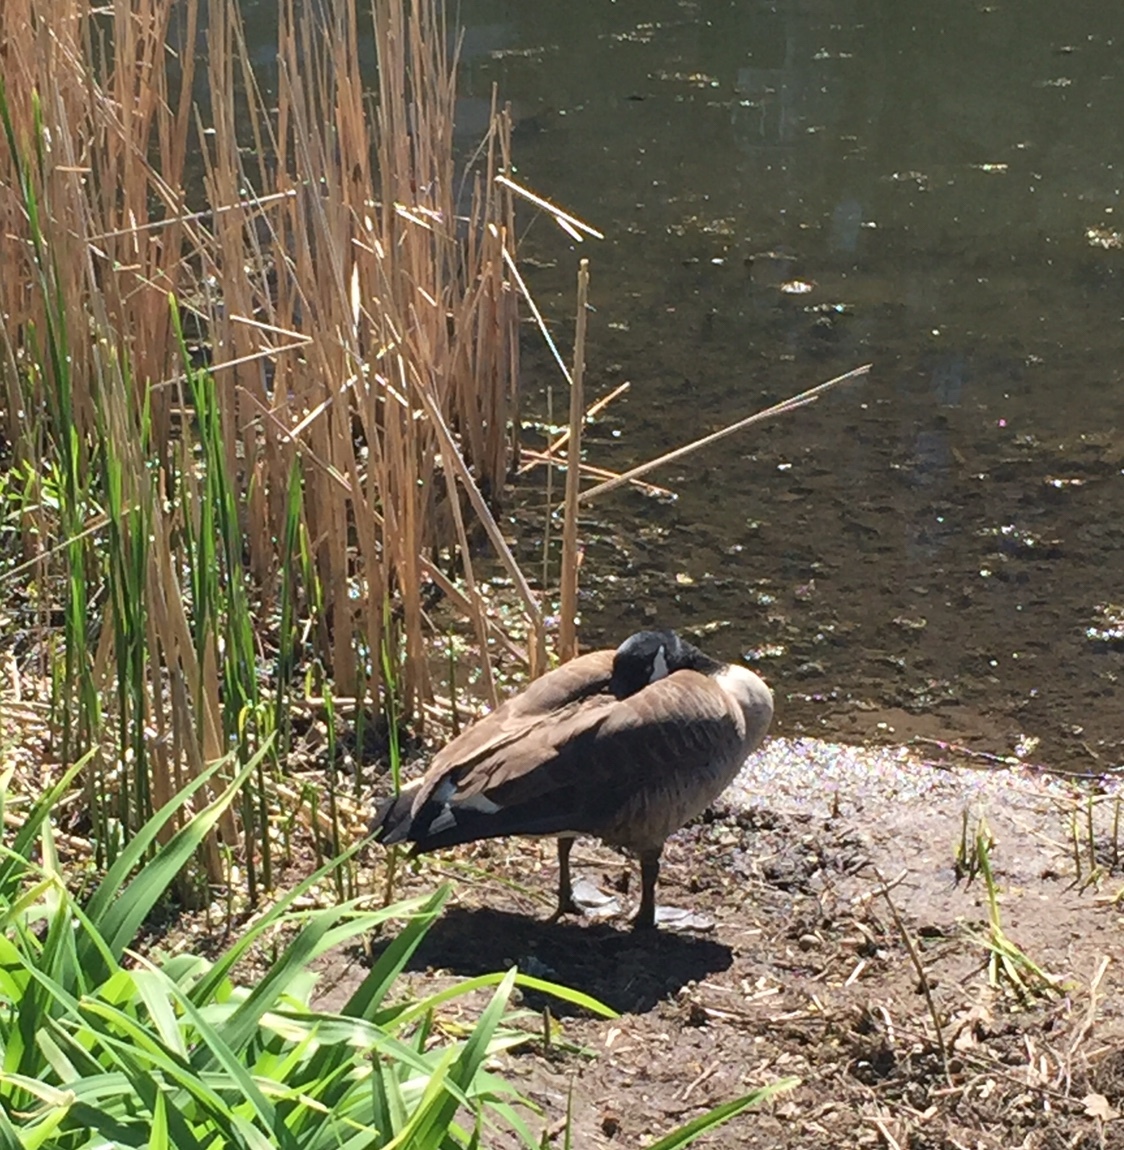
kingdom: Animalia
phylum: Chordata
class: Aves
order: Anseriformes
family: Anatidae
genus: Branta
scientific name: Branta canadensis
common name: Canada goose
